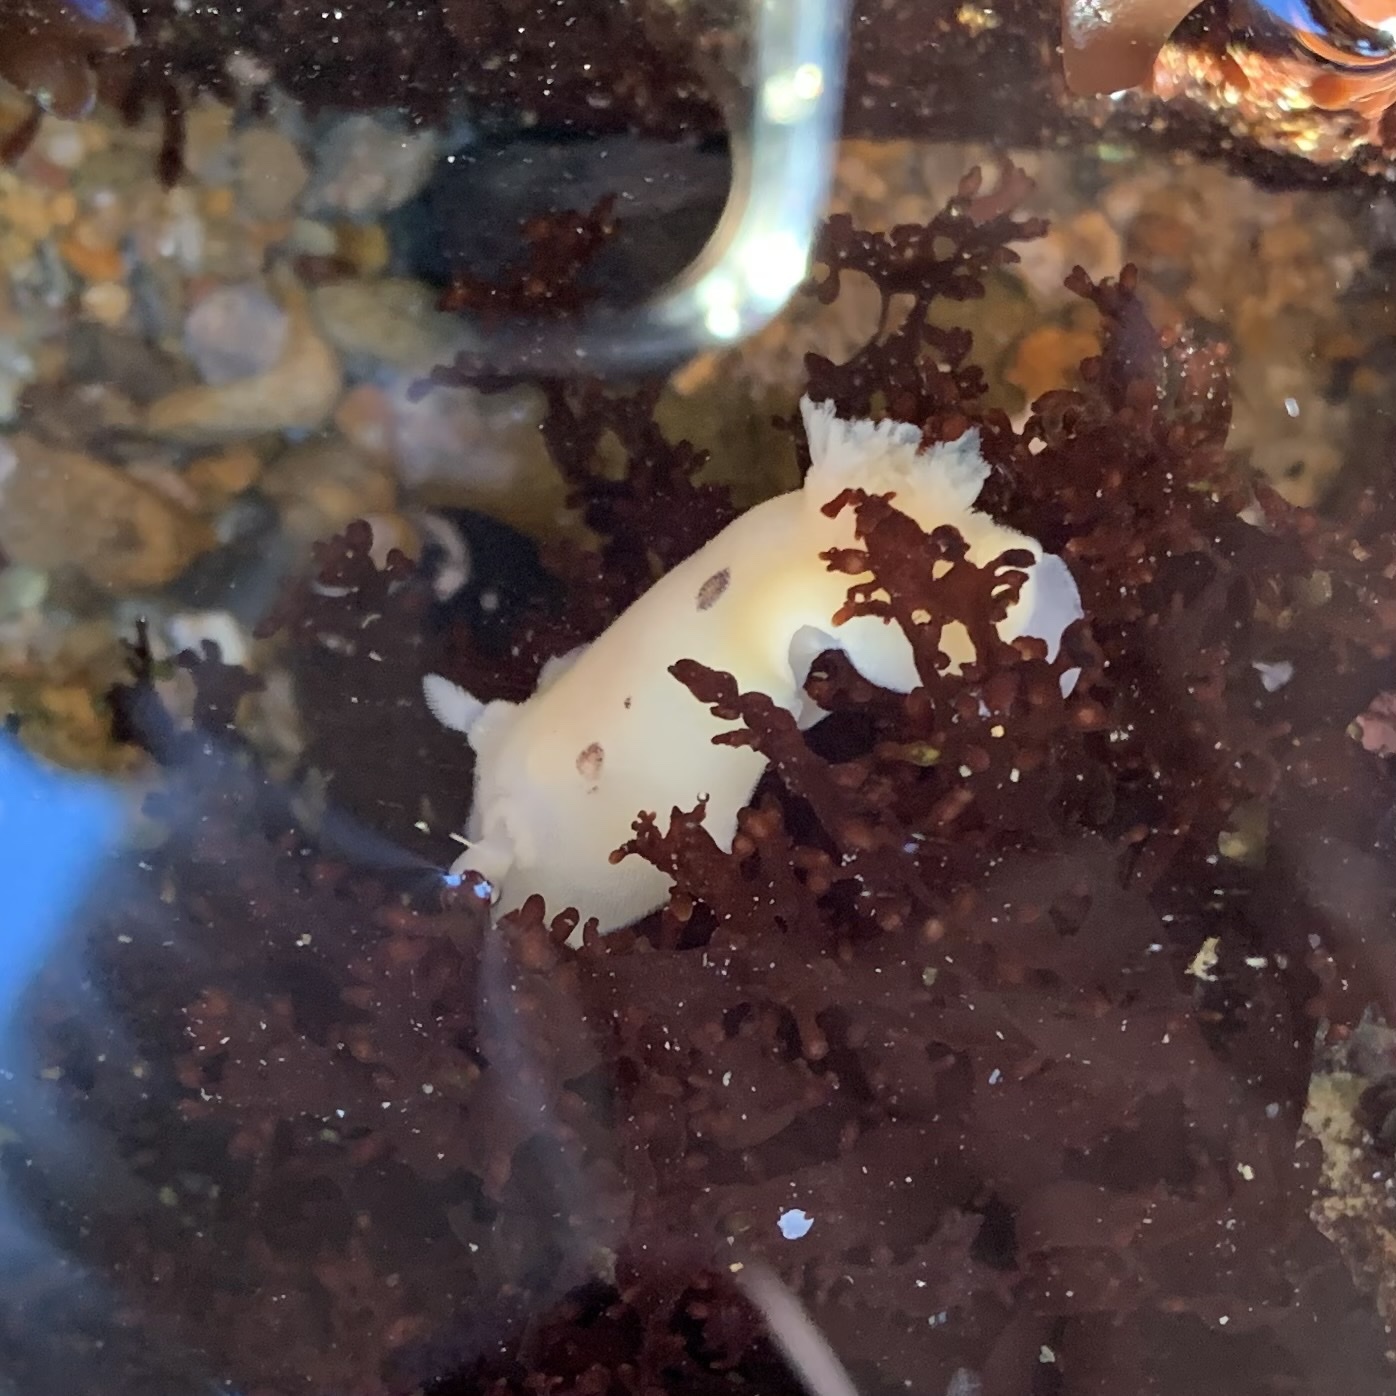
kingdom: Animalia
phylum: Mollusca
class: Gastropoda
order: Nudibranchia
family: Discodorididae
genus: Diaulula
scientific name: Diaulula sandiegensis
